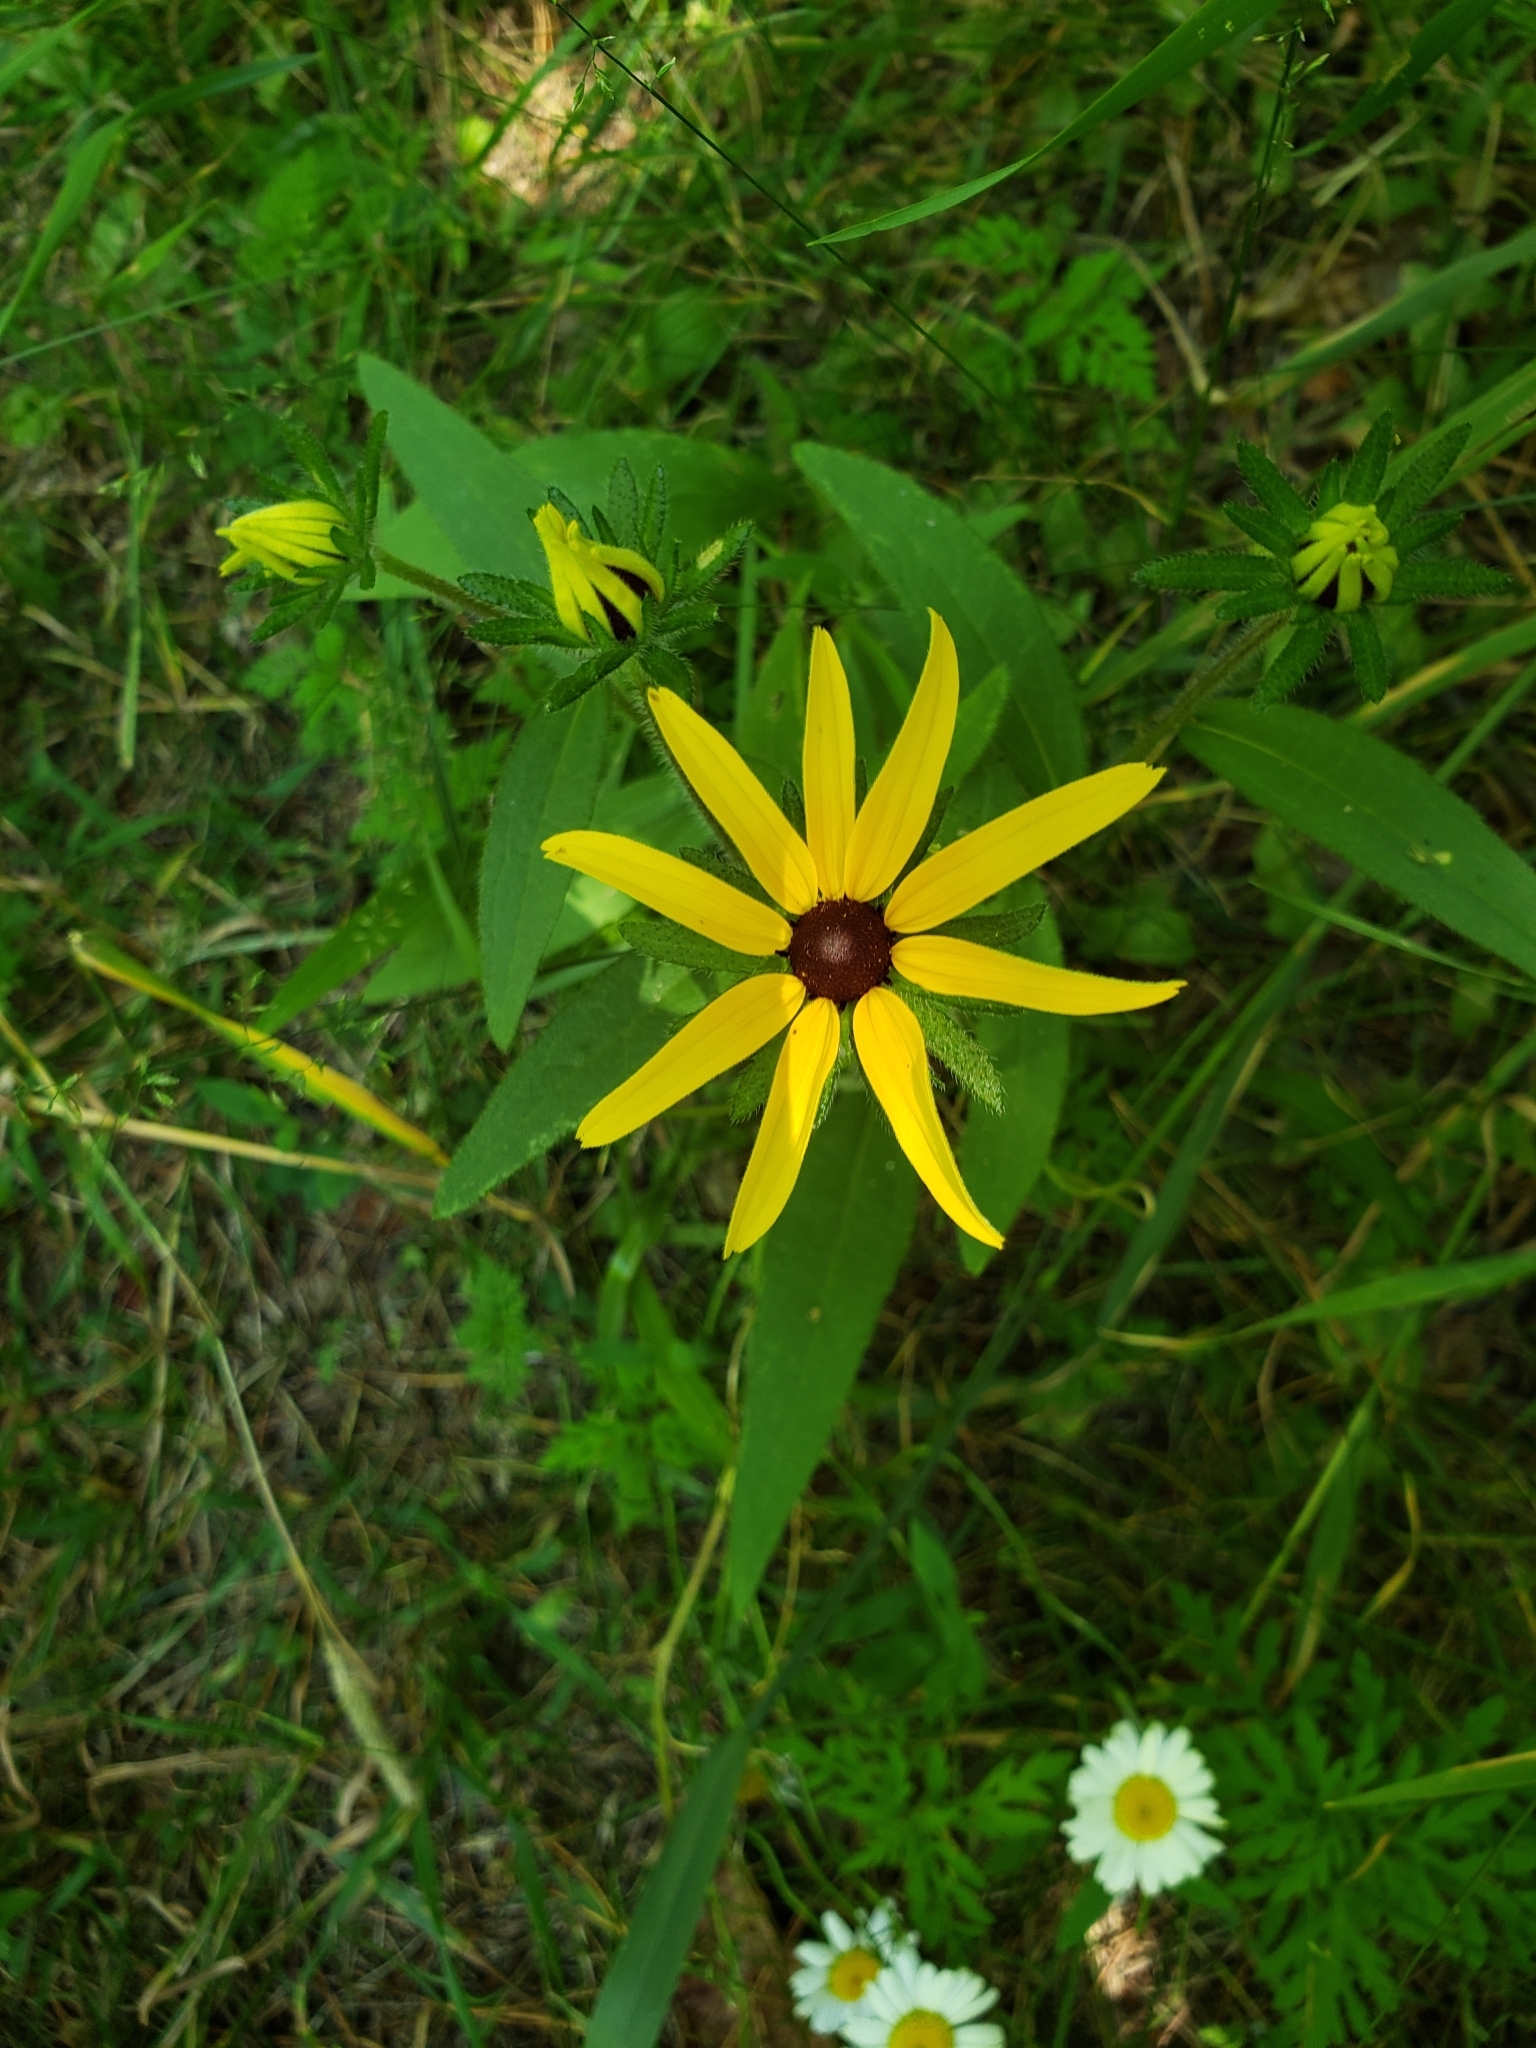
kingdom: Plantae
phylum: Tracheophyta
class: Magnoliopsida
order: Asterales
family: Asteraceae
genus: Rudbeckia
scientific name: Rudbeckia hirta
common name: Black-eyed-susan
